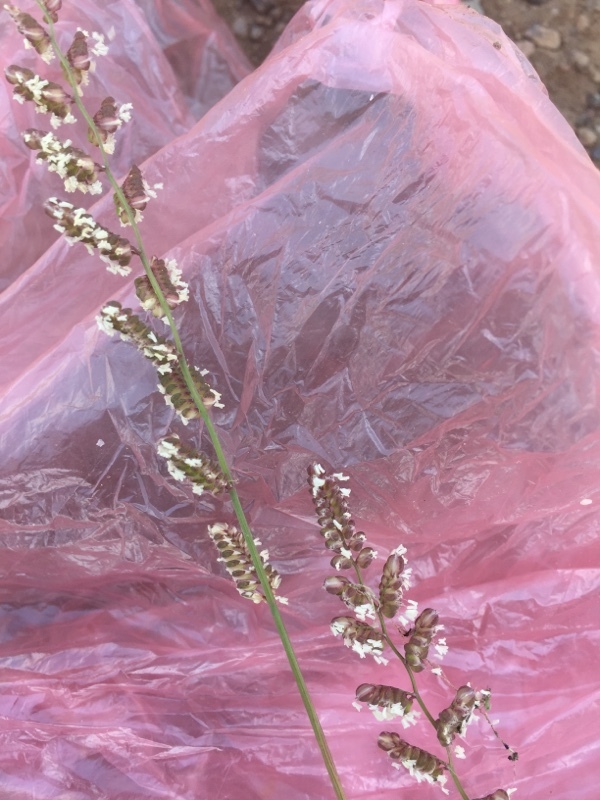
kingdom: Plantae
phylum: Tracheophyta
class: Liliopsida
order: Poales
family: Poaceae
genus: Beckmannia
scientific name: Beckmannia eruciformis
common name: European slough-grass
